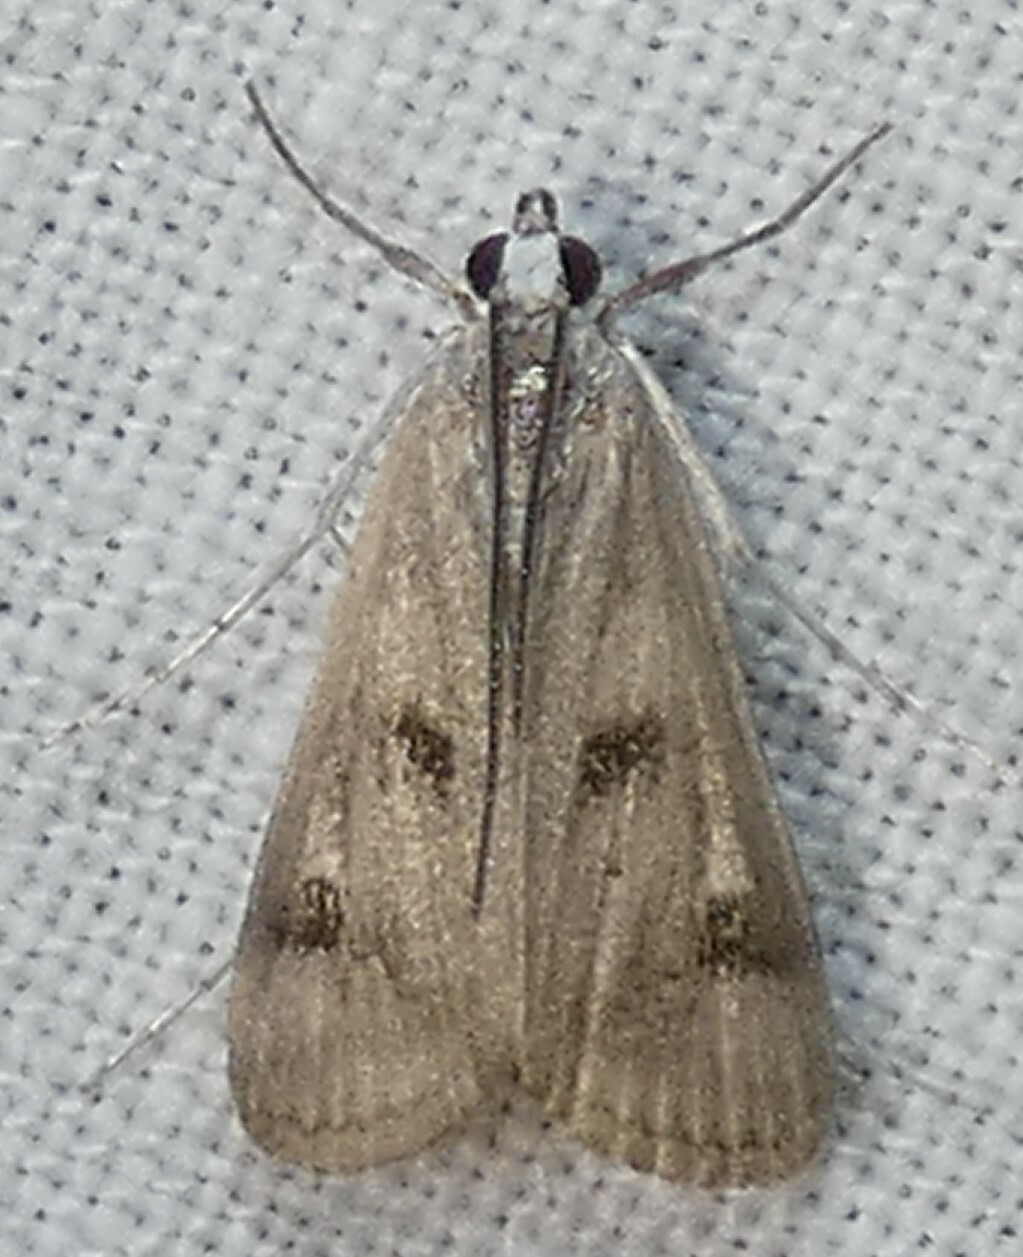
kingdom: Animalia
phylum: Arthropoda
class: Insecta
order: Lepidoptera
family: Crambidae
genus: Parapoynx
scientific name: Parapoynx maculalis
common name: Polymorphic pondweed moth
